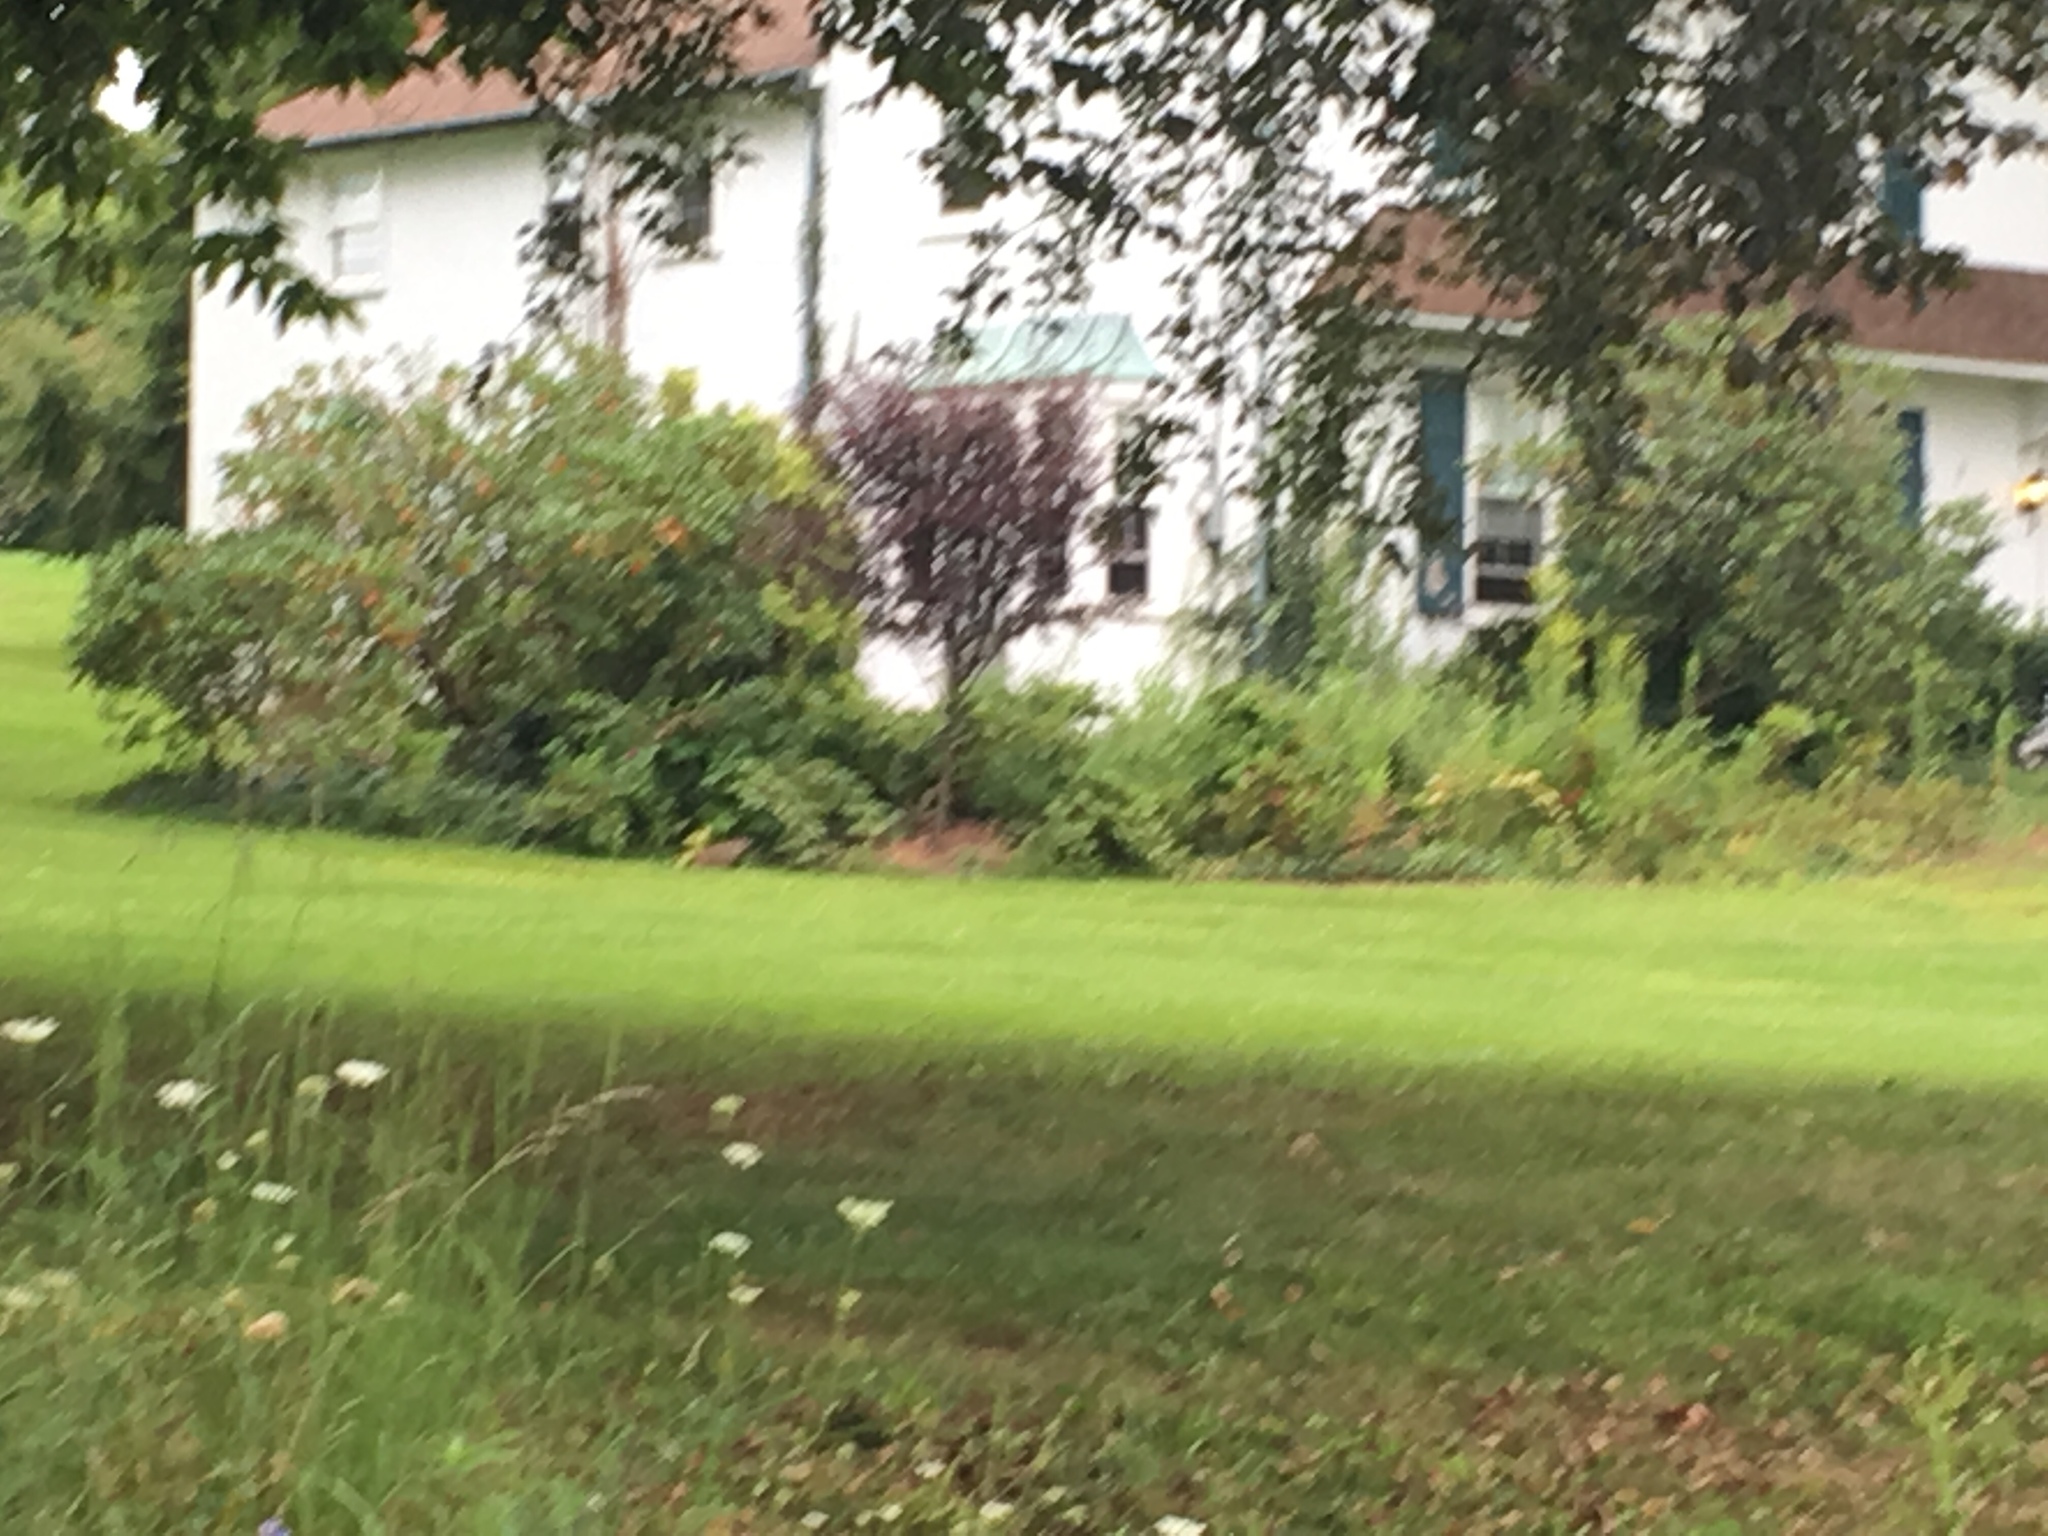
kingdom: Animalia
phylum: Chordata
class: Mammalia
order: Rodentia
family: Sciuridae
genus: Marmota
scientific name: Marmota monax
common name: Groundhog
